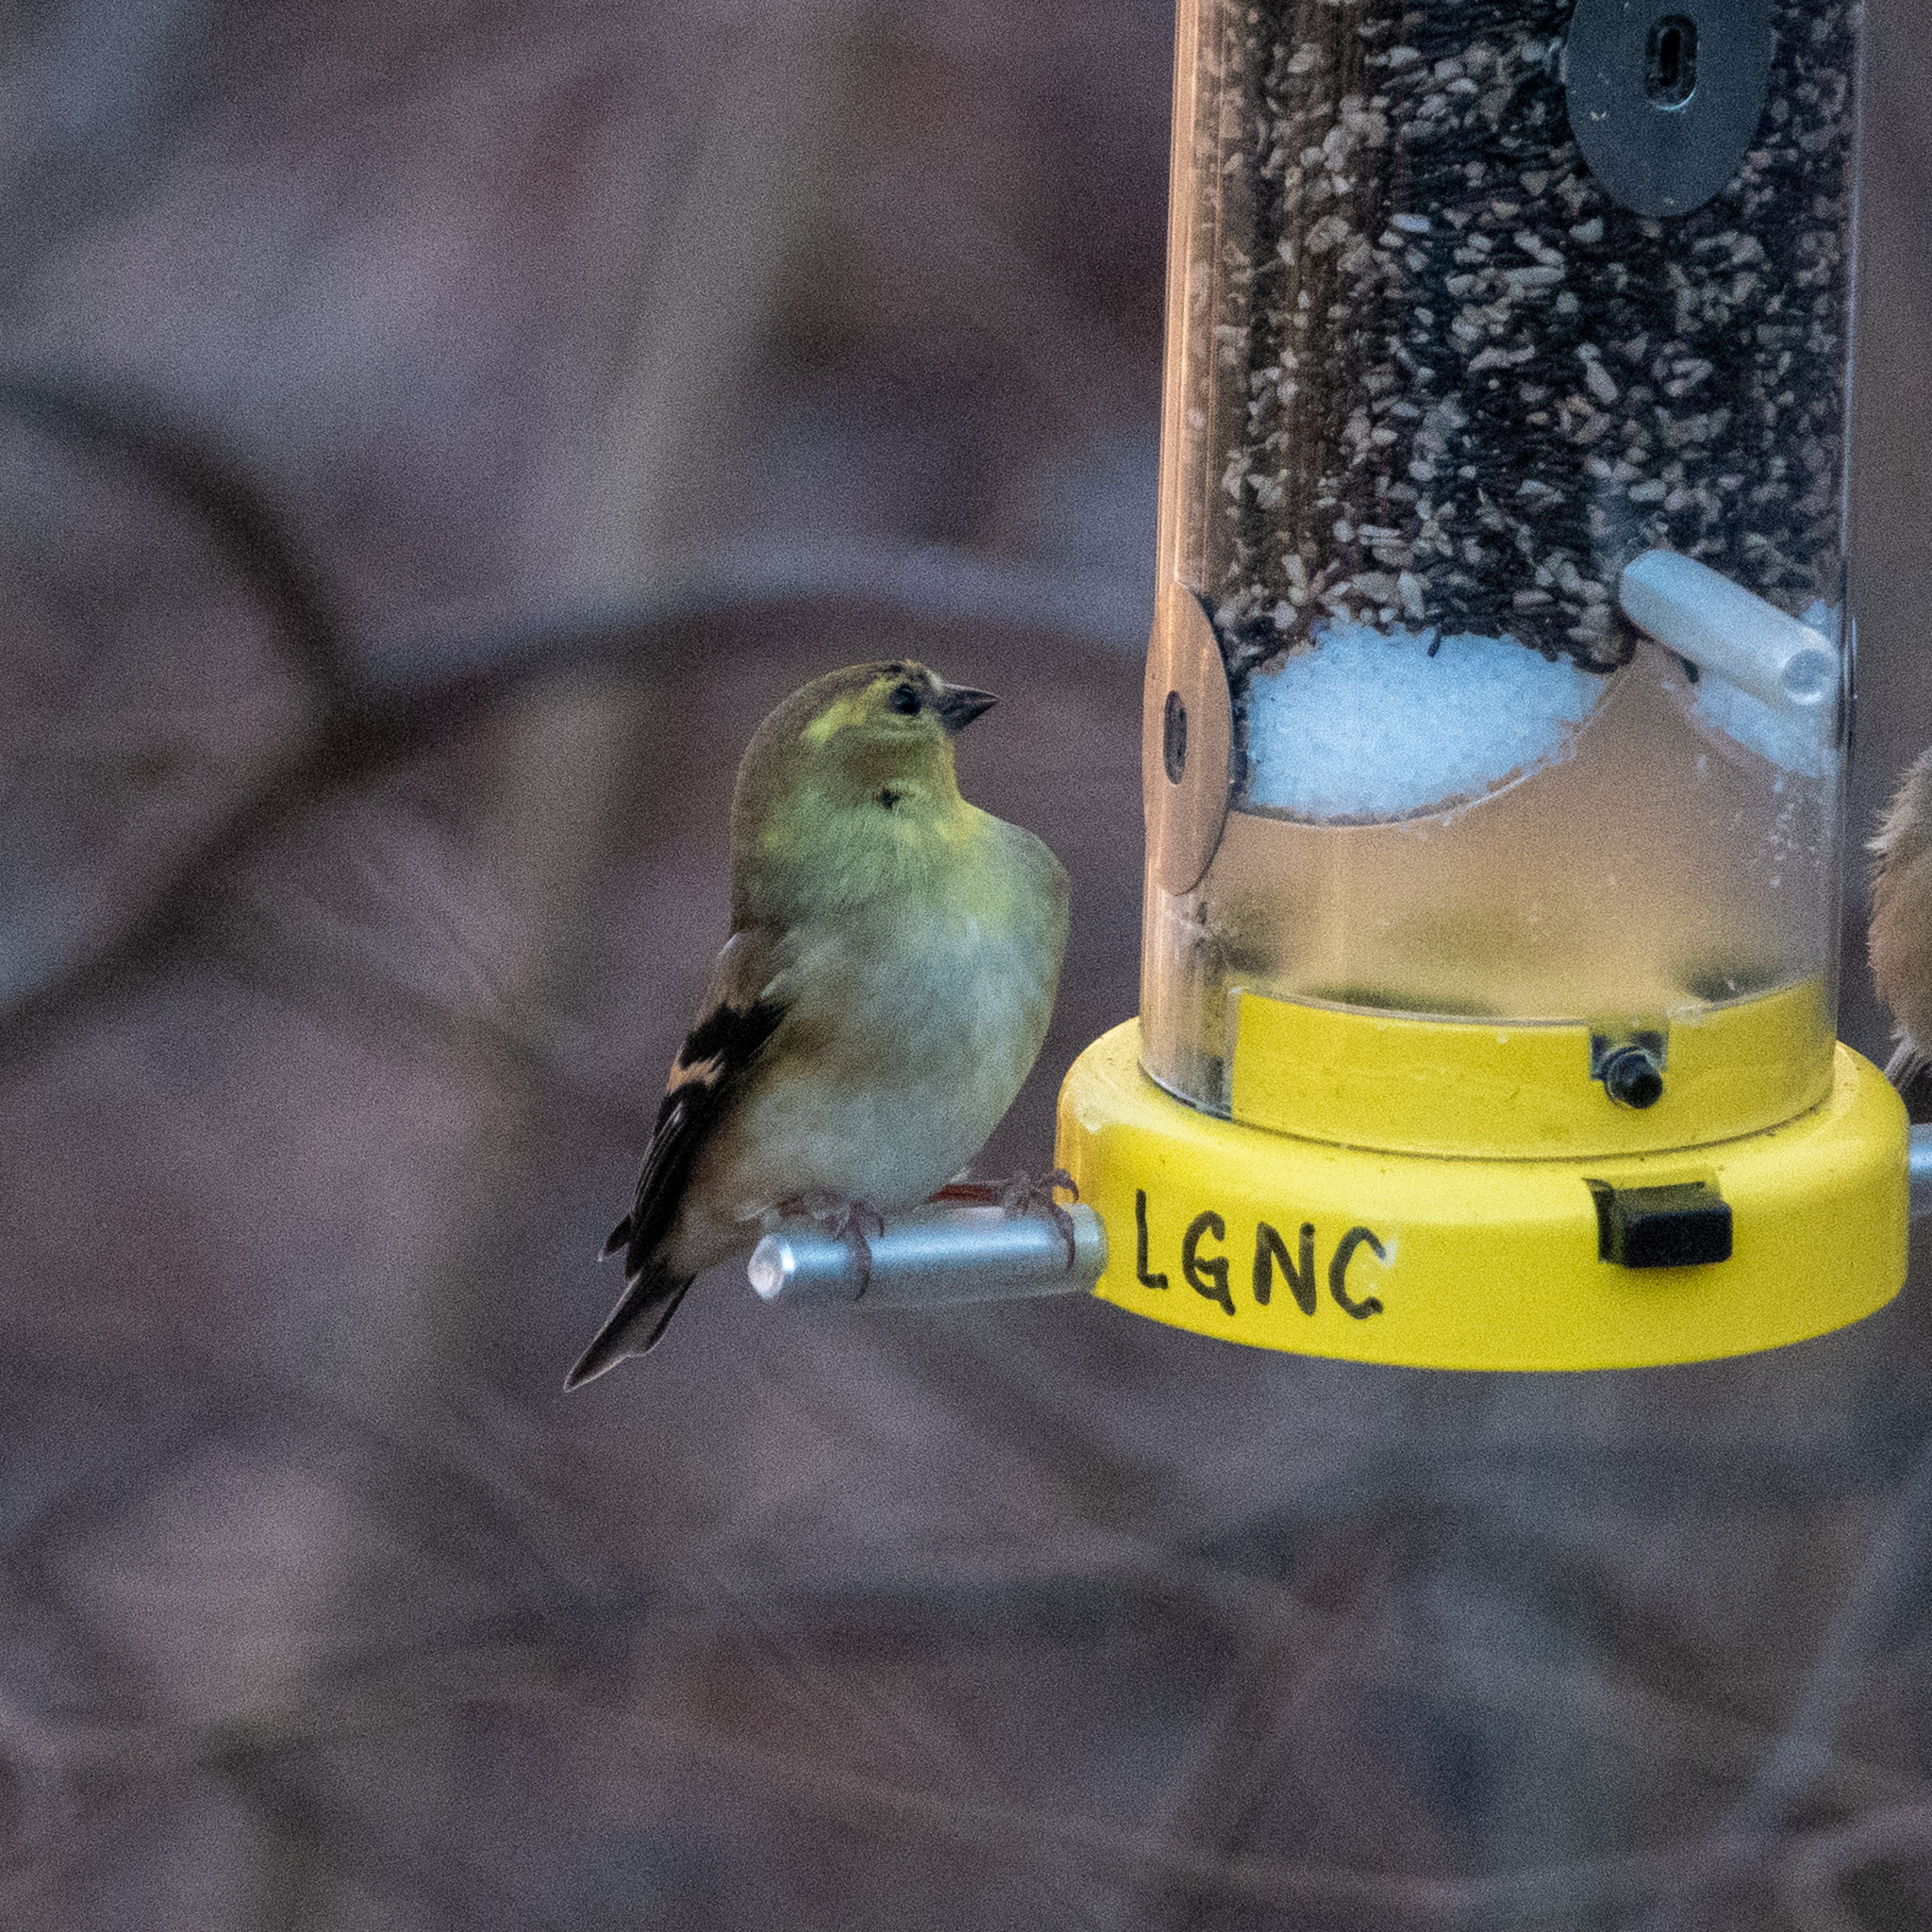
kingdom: Animalia
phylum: Chordata
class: Aves
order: Passeriformes
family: Fringillidae
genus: Spinus
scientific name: Spinus tristis
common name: American goldfinch
